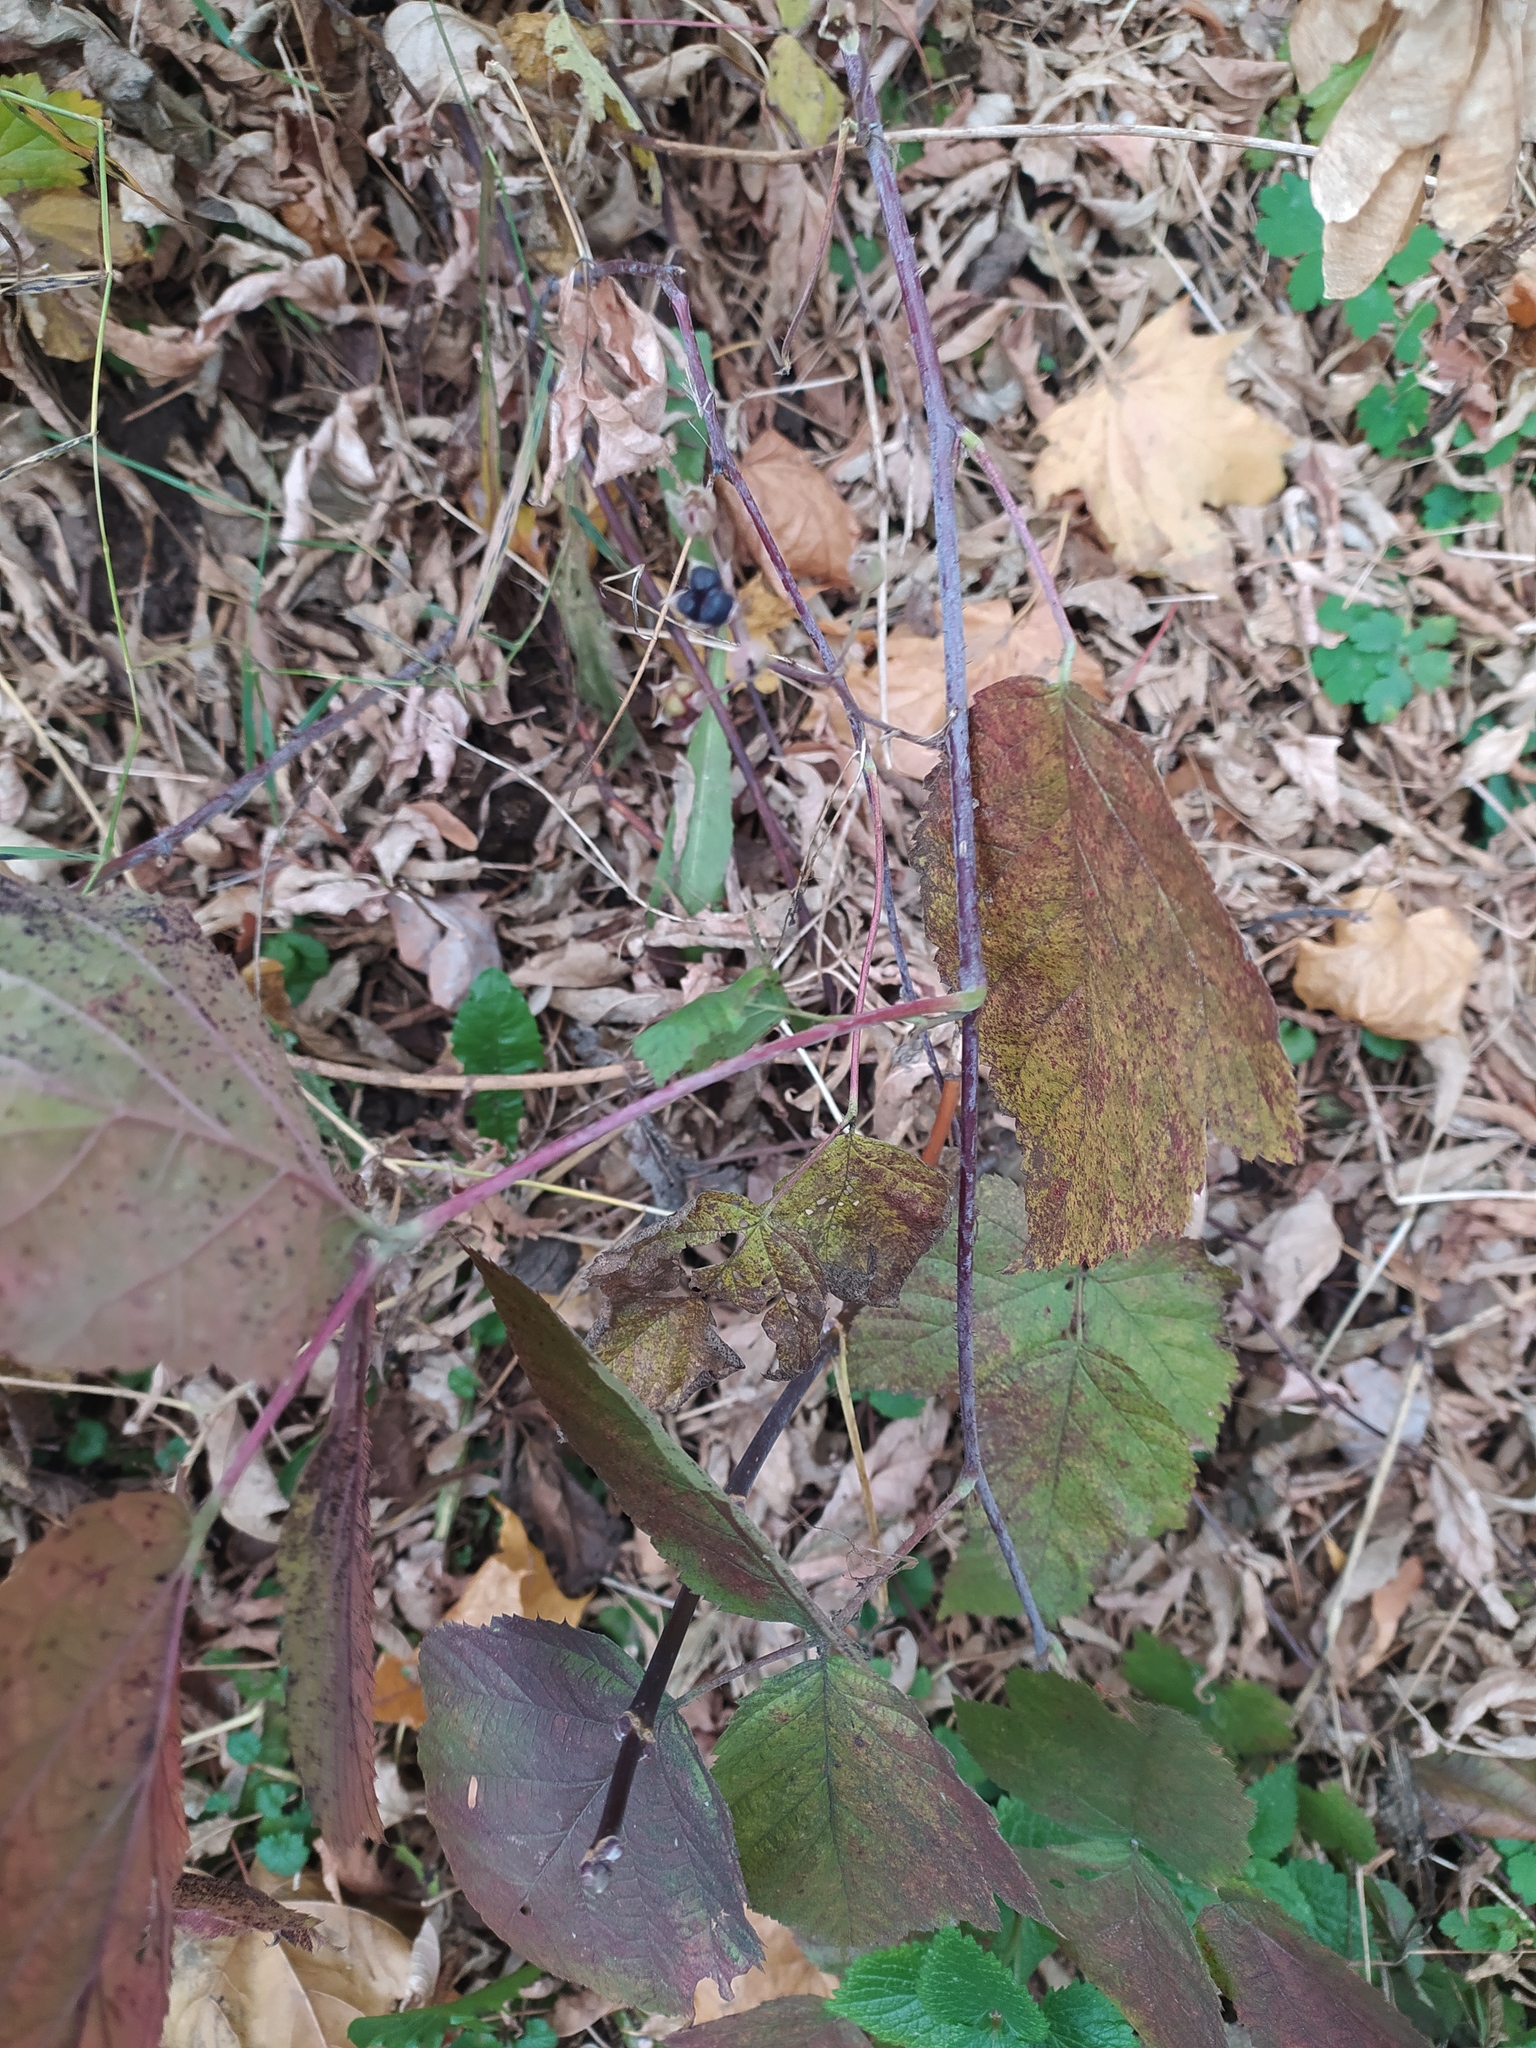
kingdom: Plantae
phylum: Tracheophyta
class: Magnoliopsida
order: Rosales
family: Rosaceae
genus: Rubus
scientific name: Rubus caesius
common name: Dewberry
